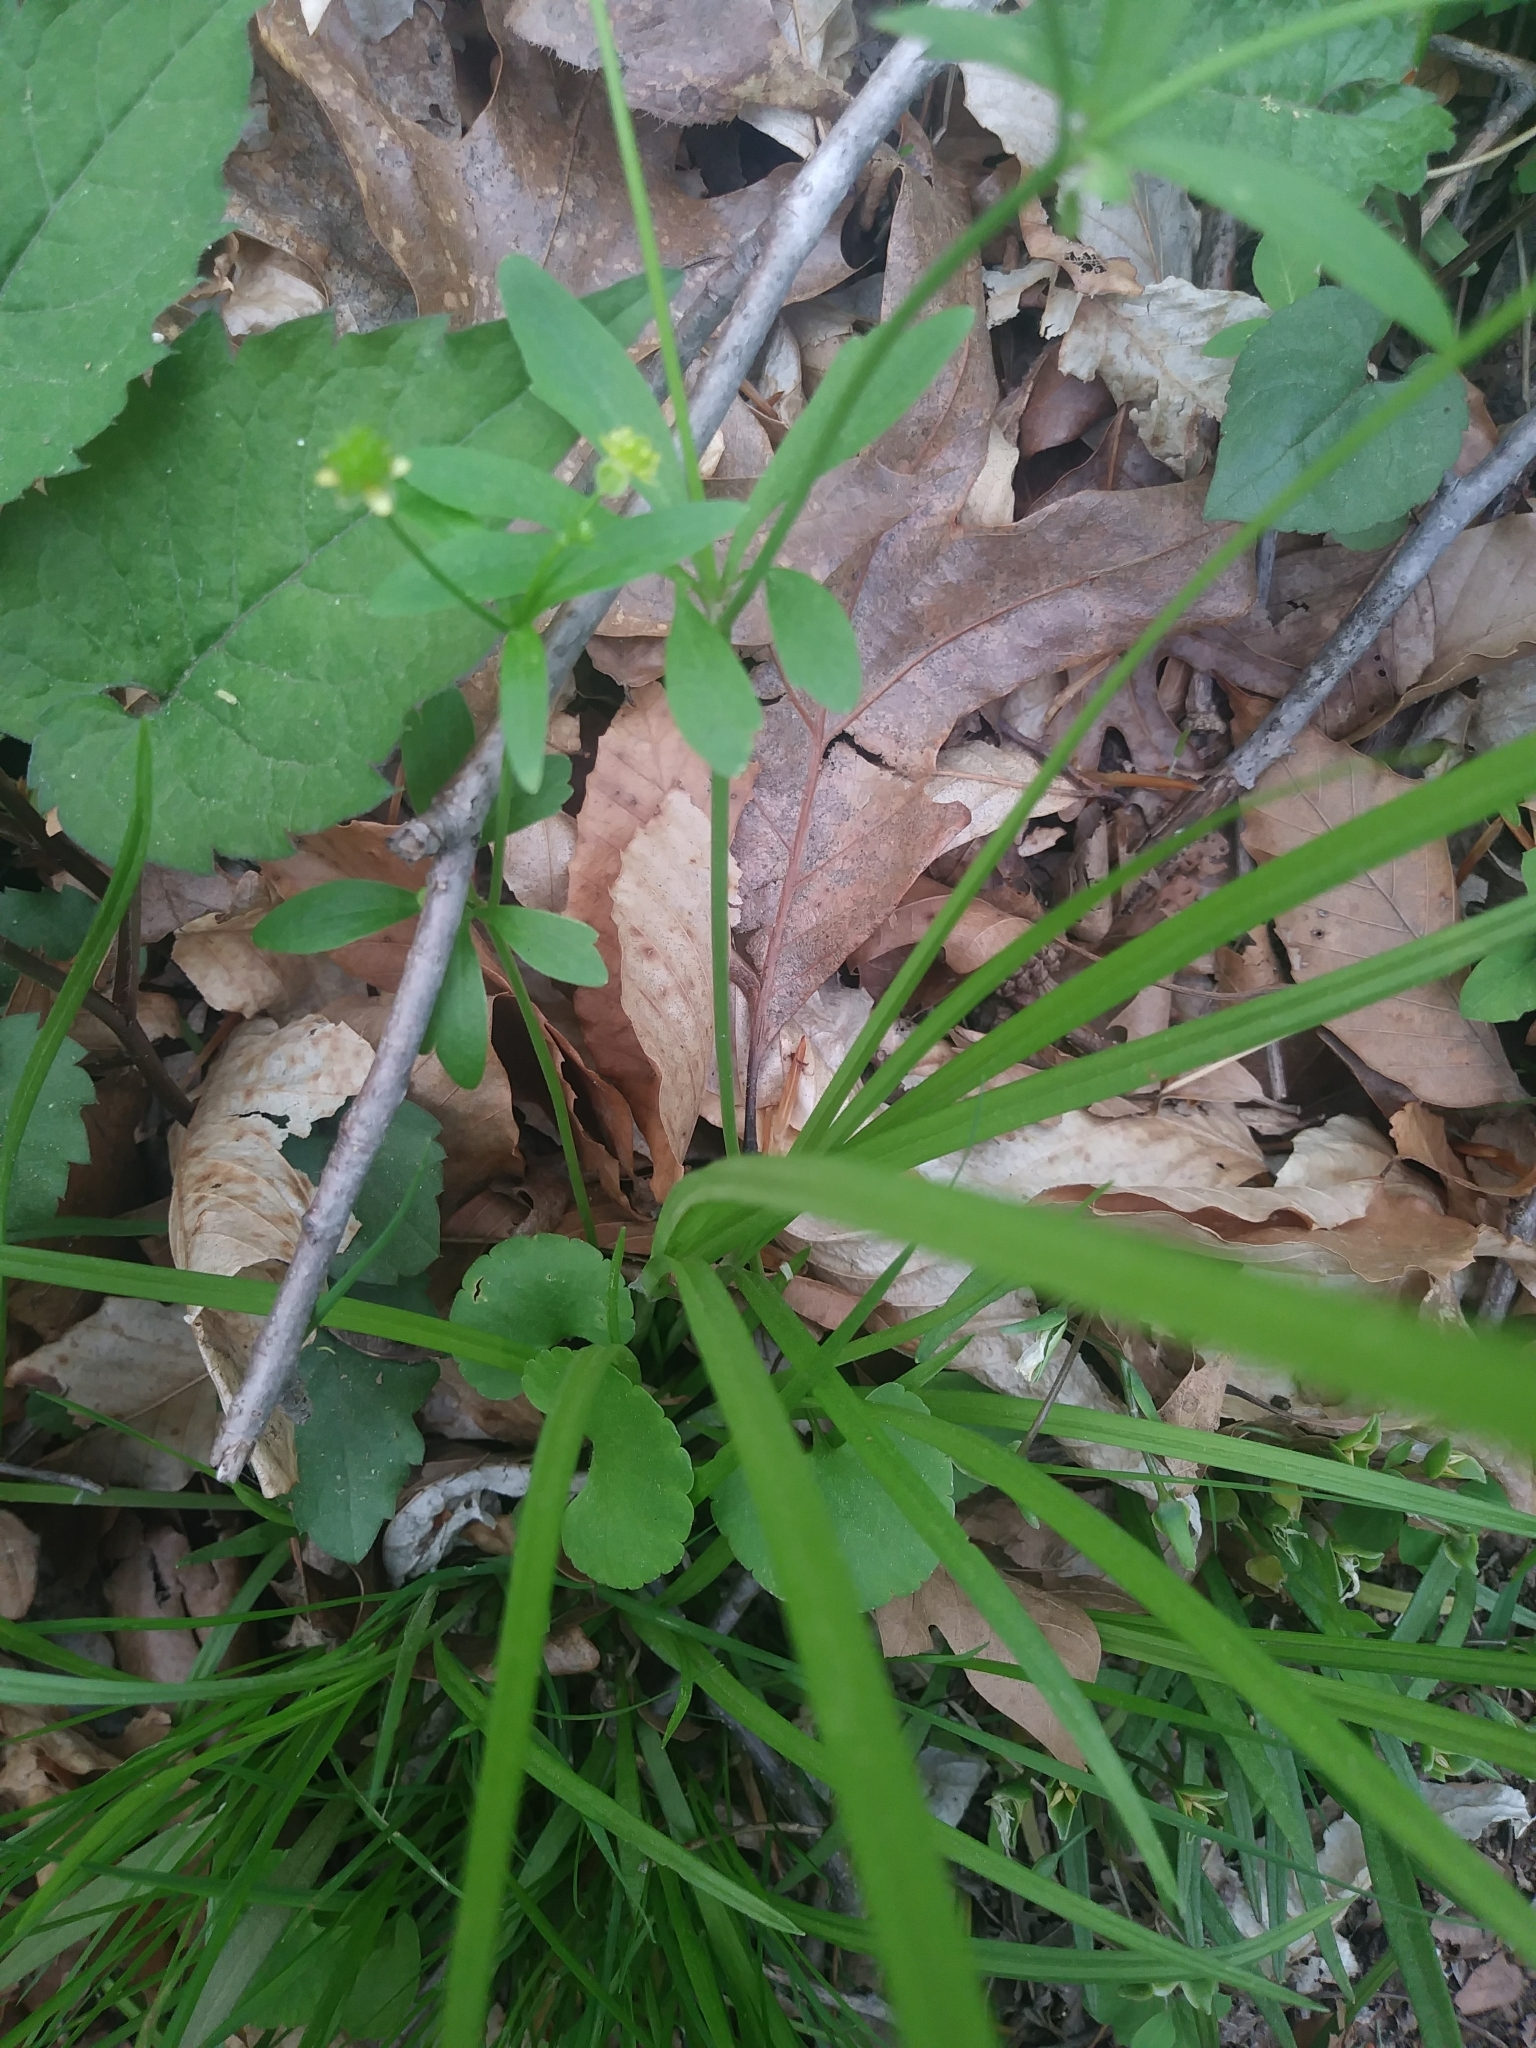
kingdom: Plantae
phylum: Tracheophyta
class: Magnoliopsida
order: Ranunculales
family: Ranunculaceae
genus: Ranunculus
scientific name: Ranunculus abortivus
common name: Early wood buttercup
